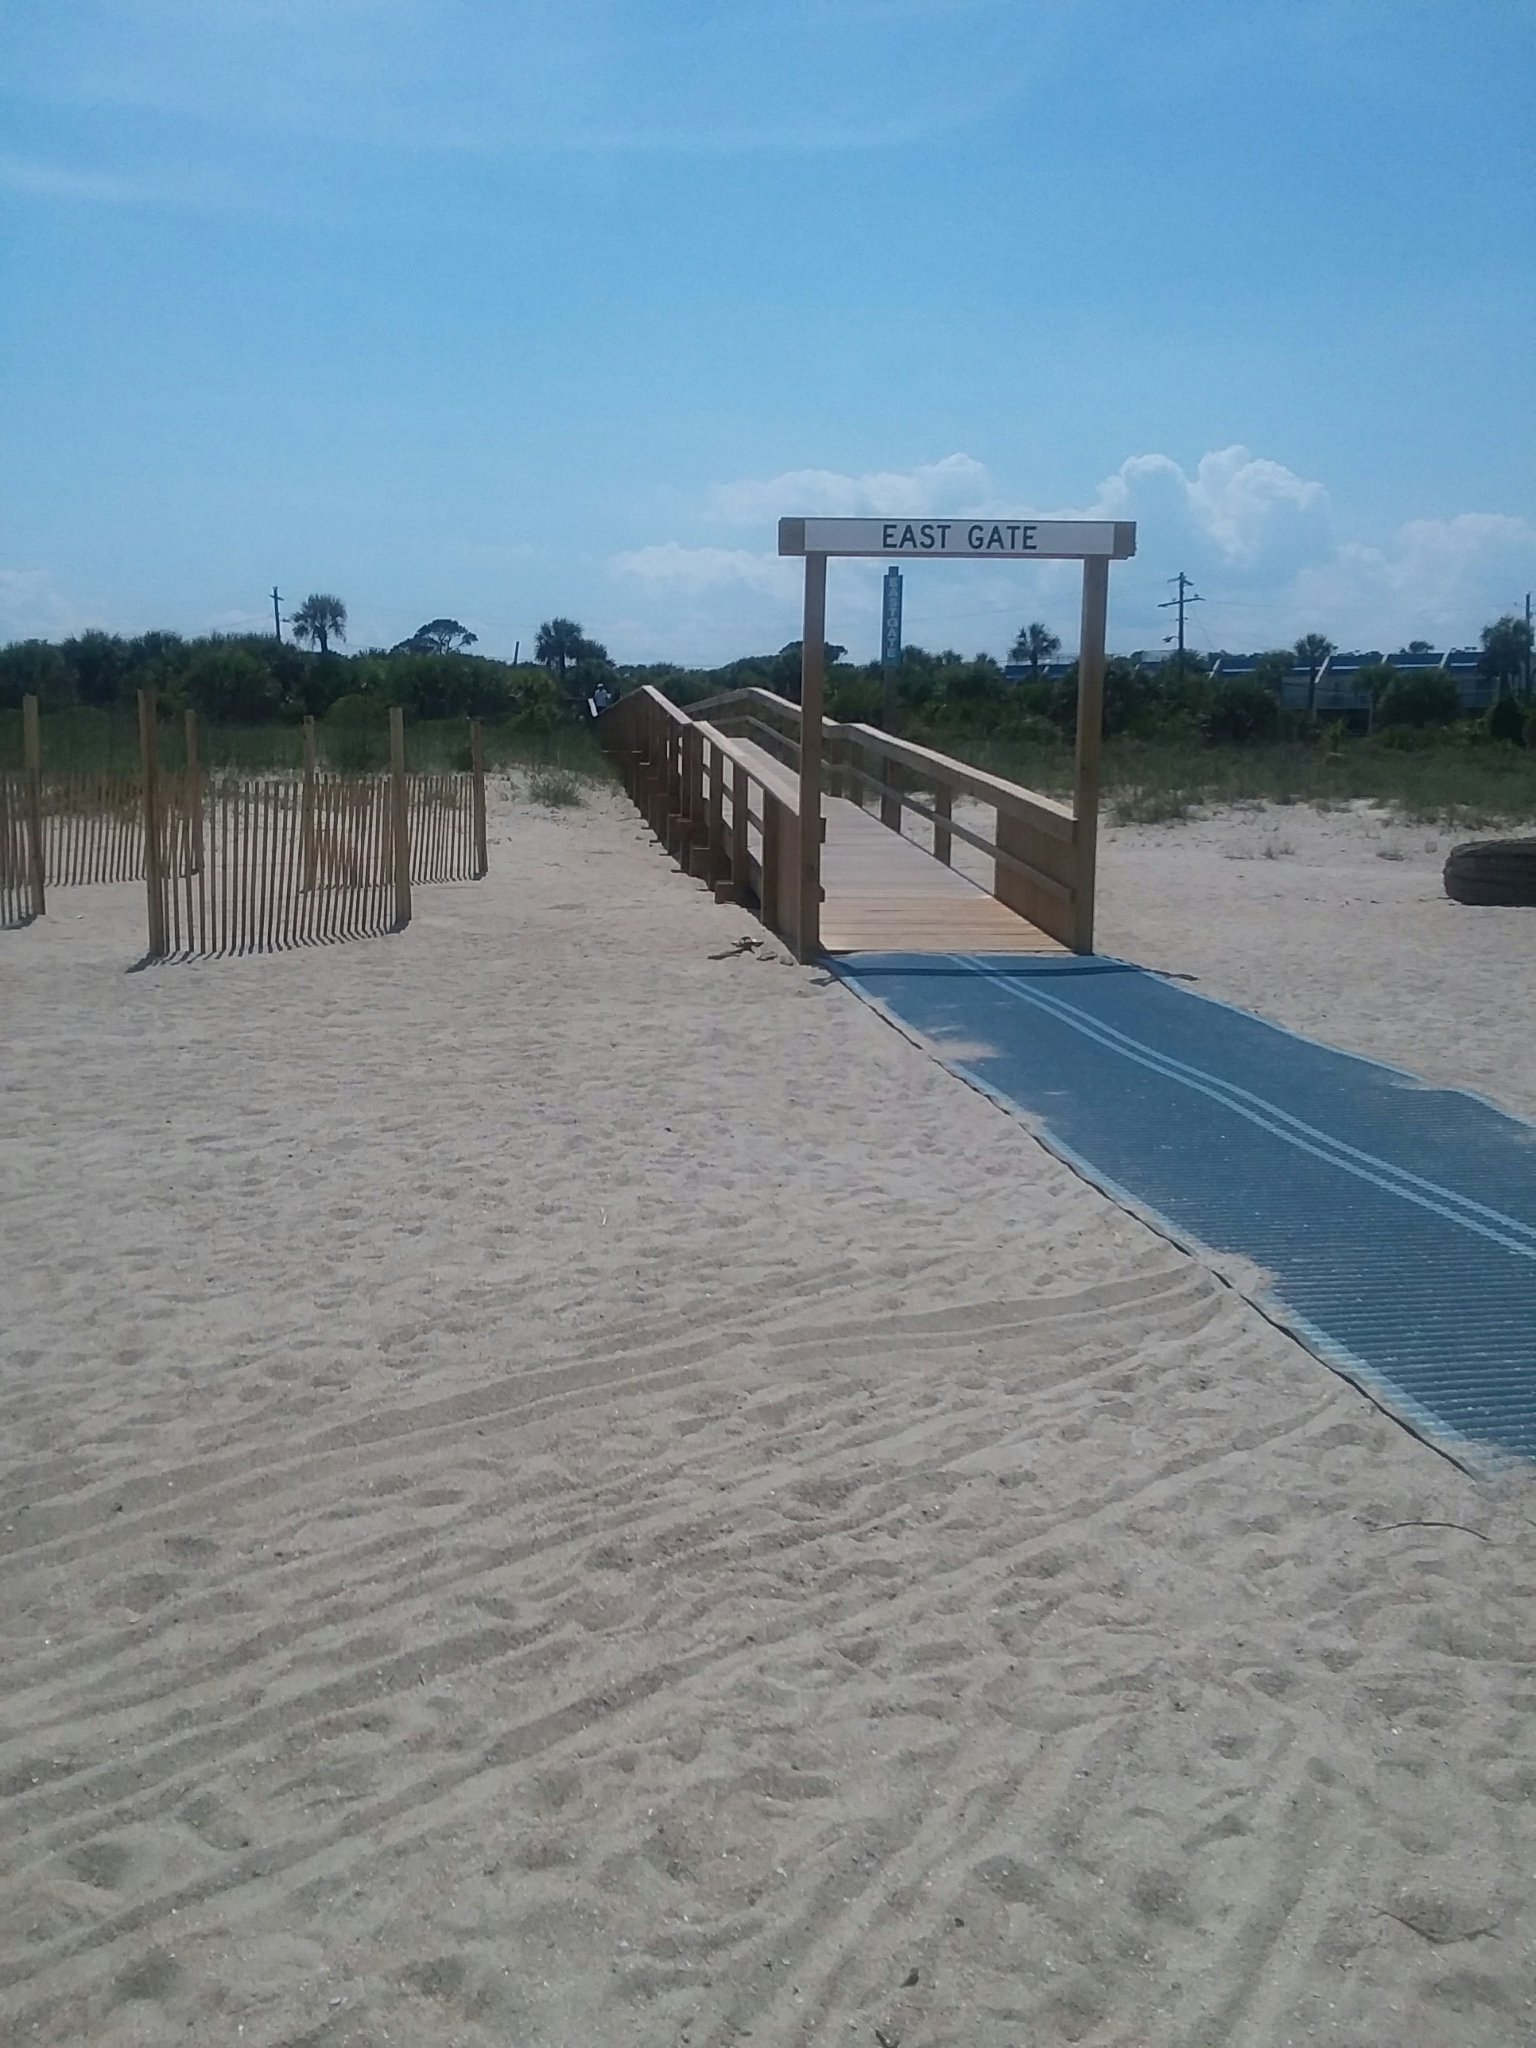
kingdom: Animalia
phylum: Chordata
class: Mammalia
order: Carnivora
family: Procyonidae
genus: Procyon
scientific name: Procyon lotor
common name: Raccoon
